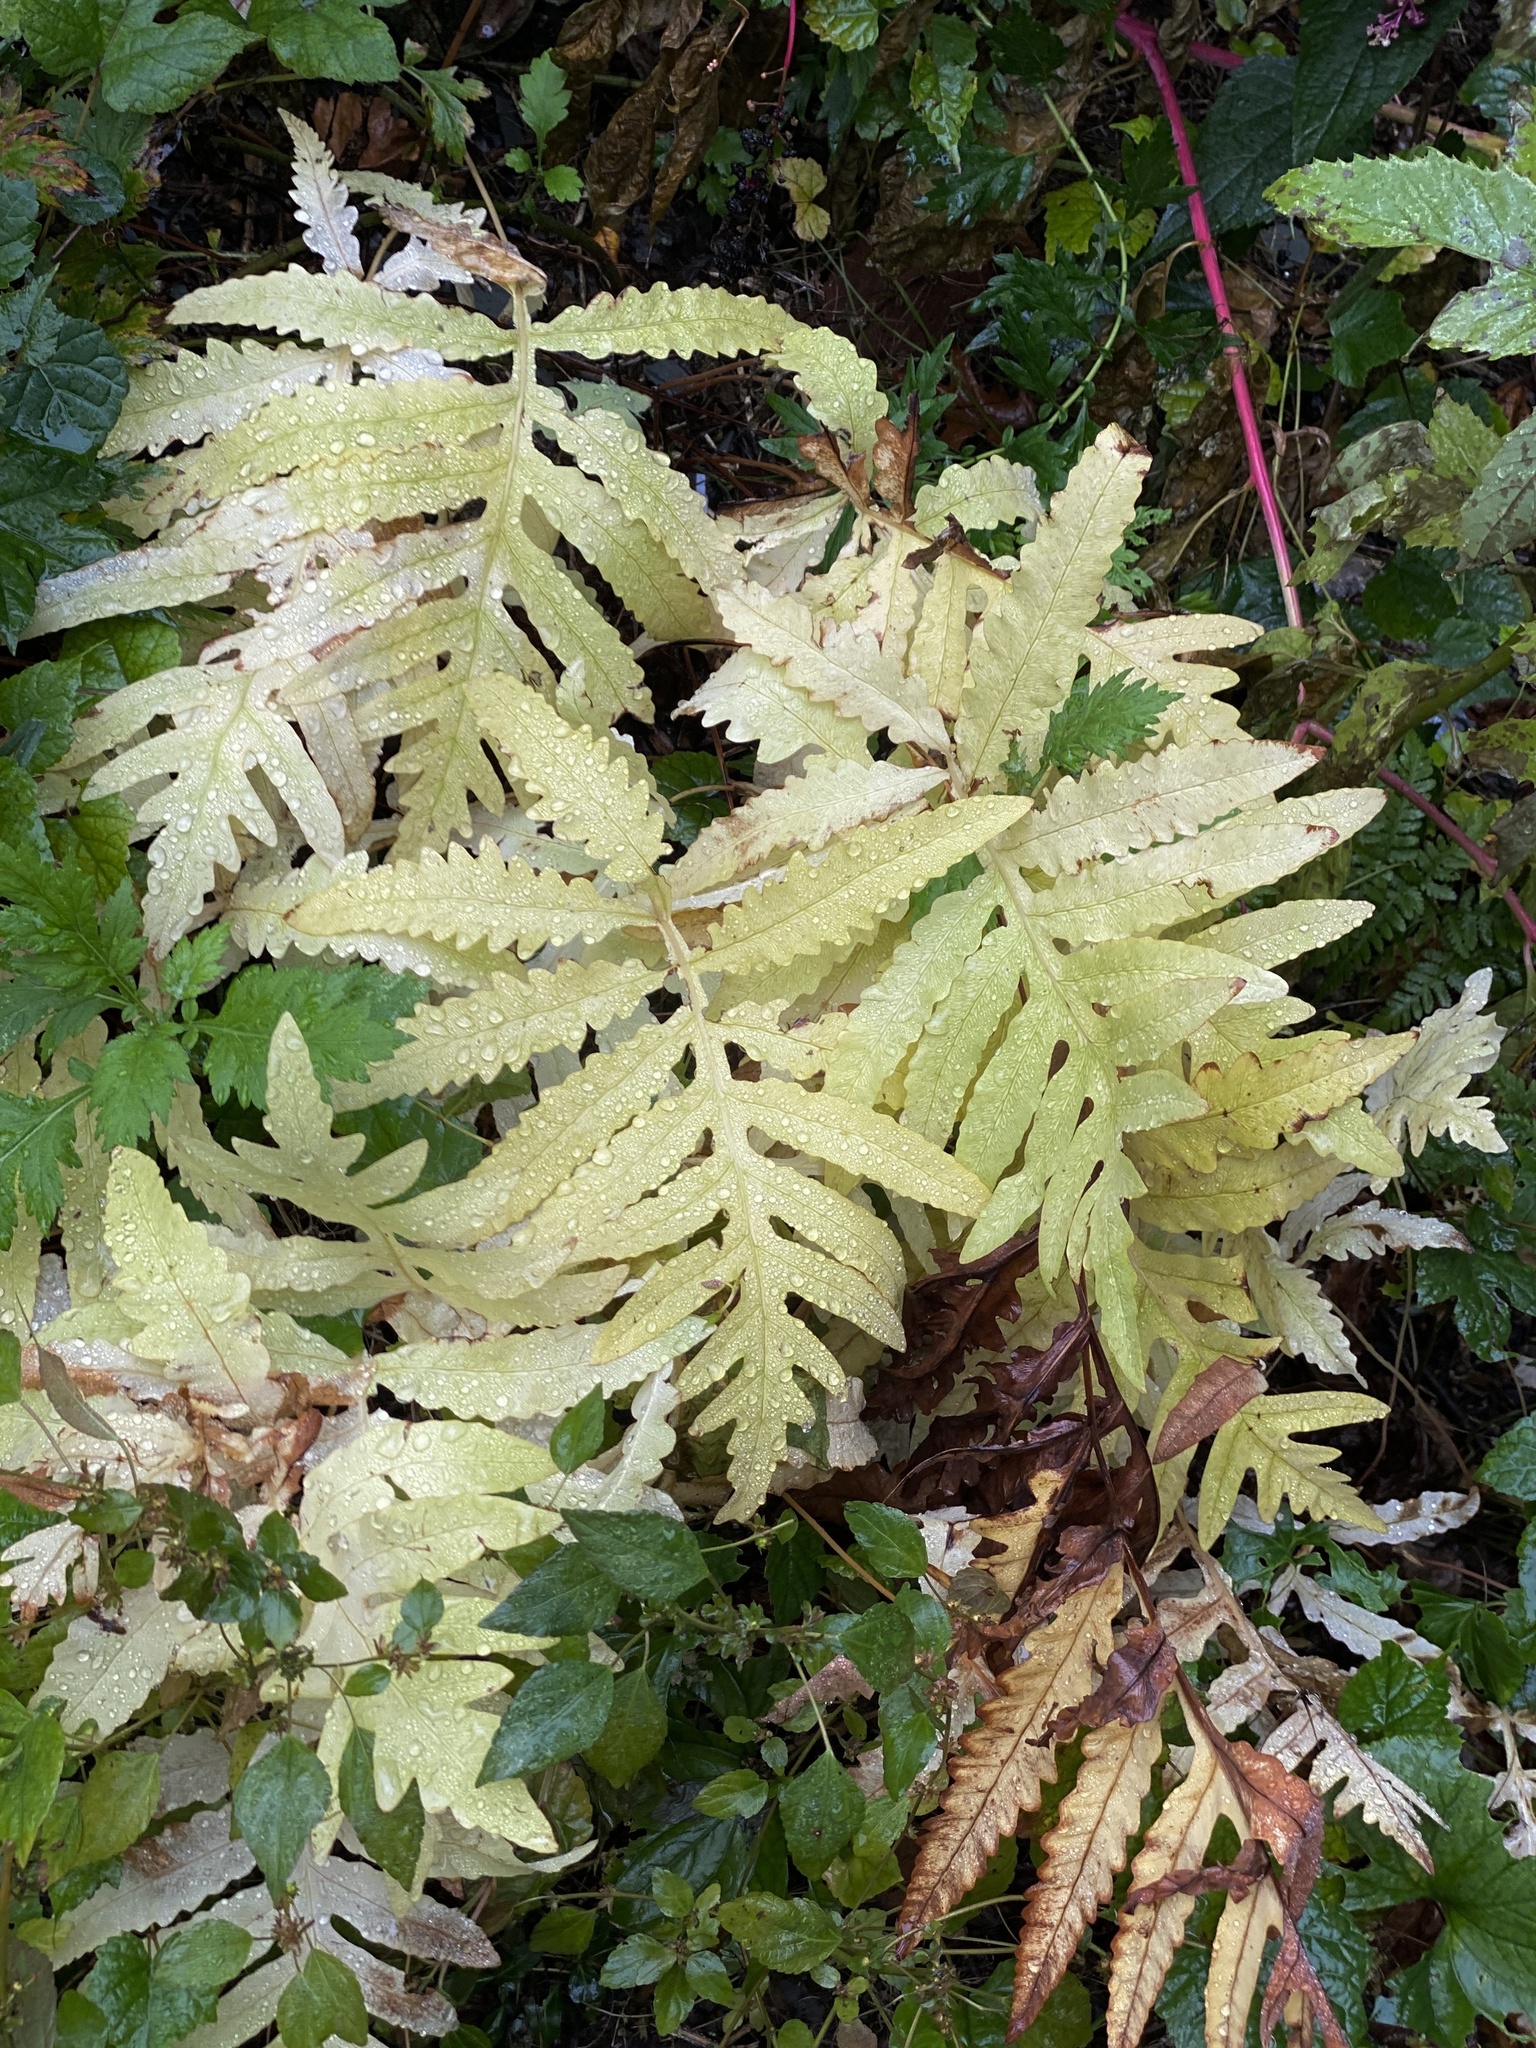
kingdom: Plantae
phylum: Tracheophyta
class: Polypodiopsida
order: Polypodiales
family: Onocleaceae
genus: Onoclea
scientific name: Onoclea sensibilis
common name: Sensitive fern
